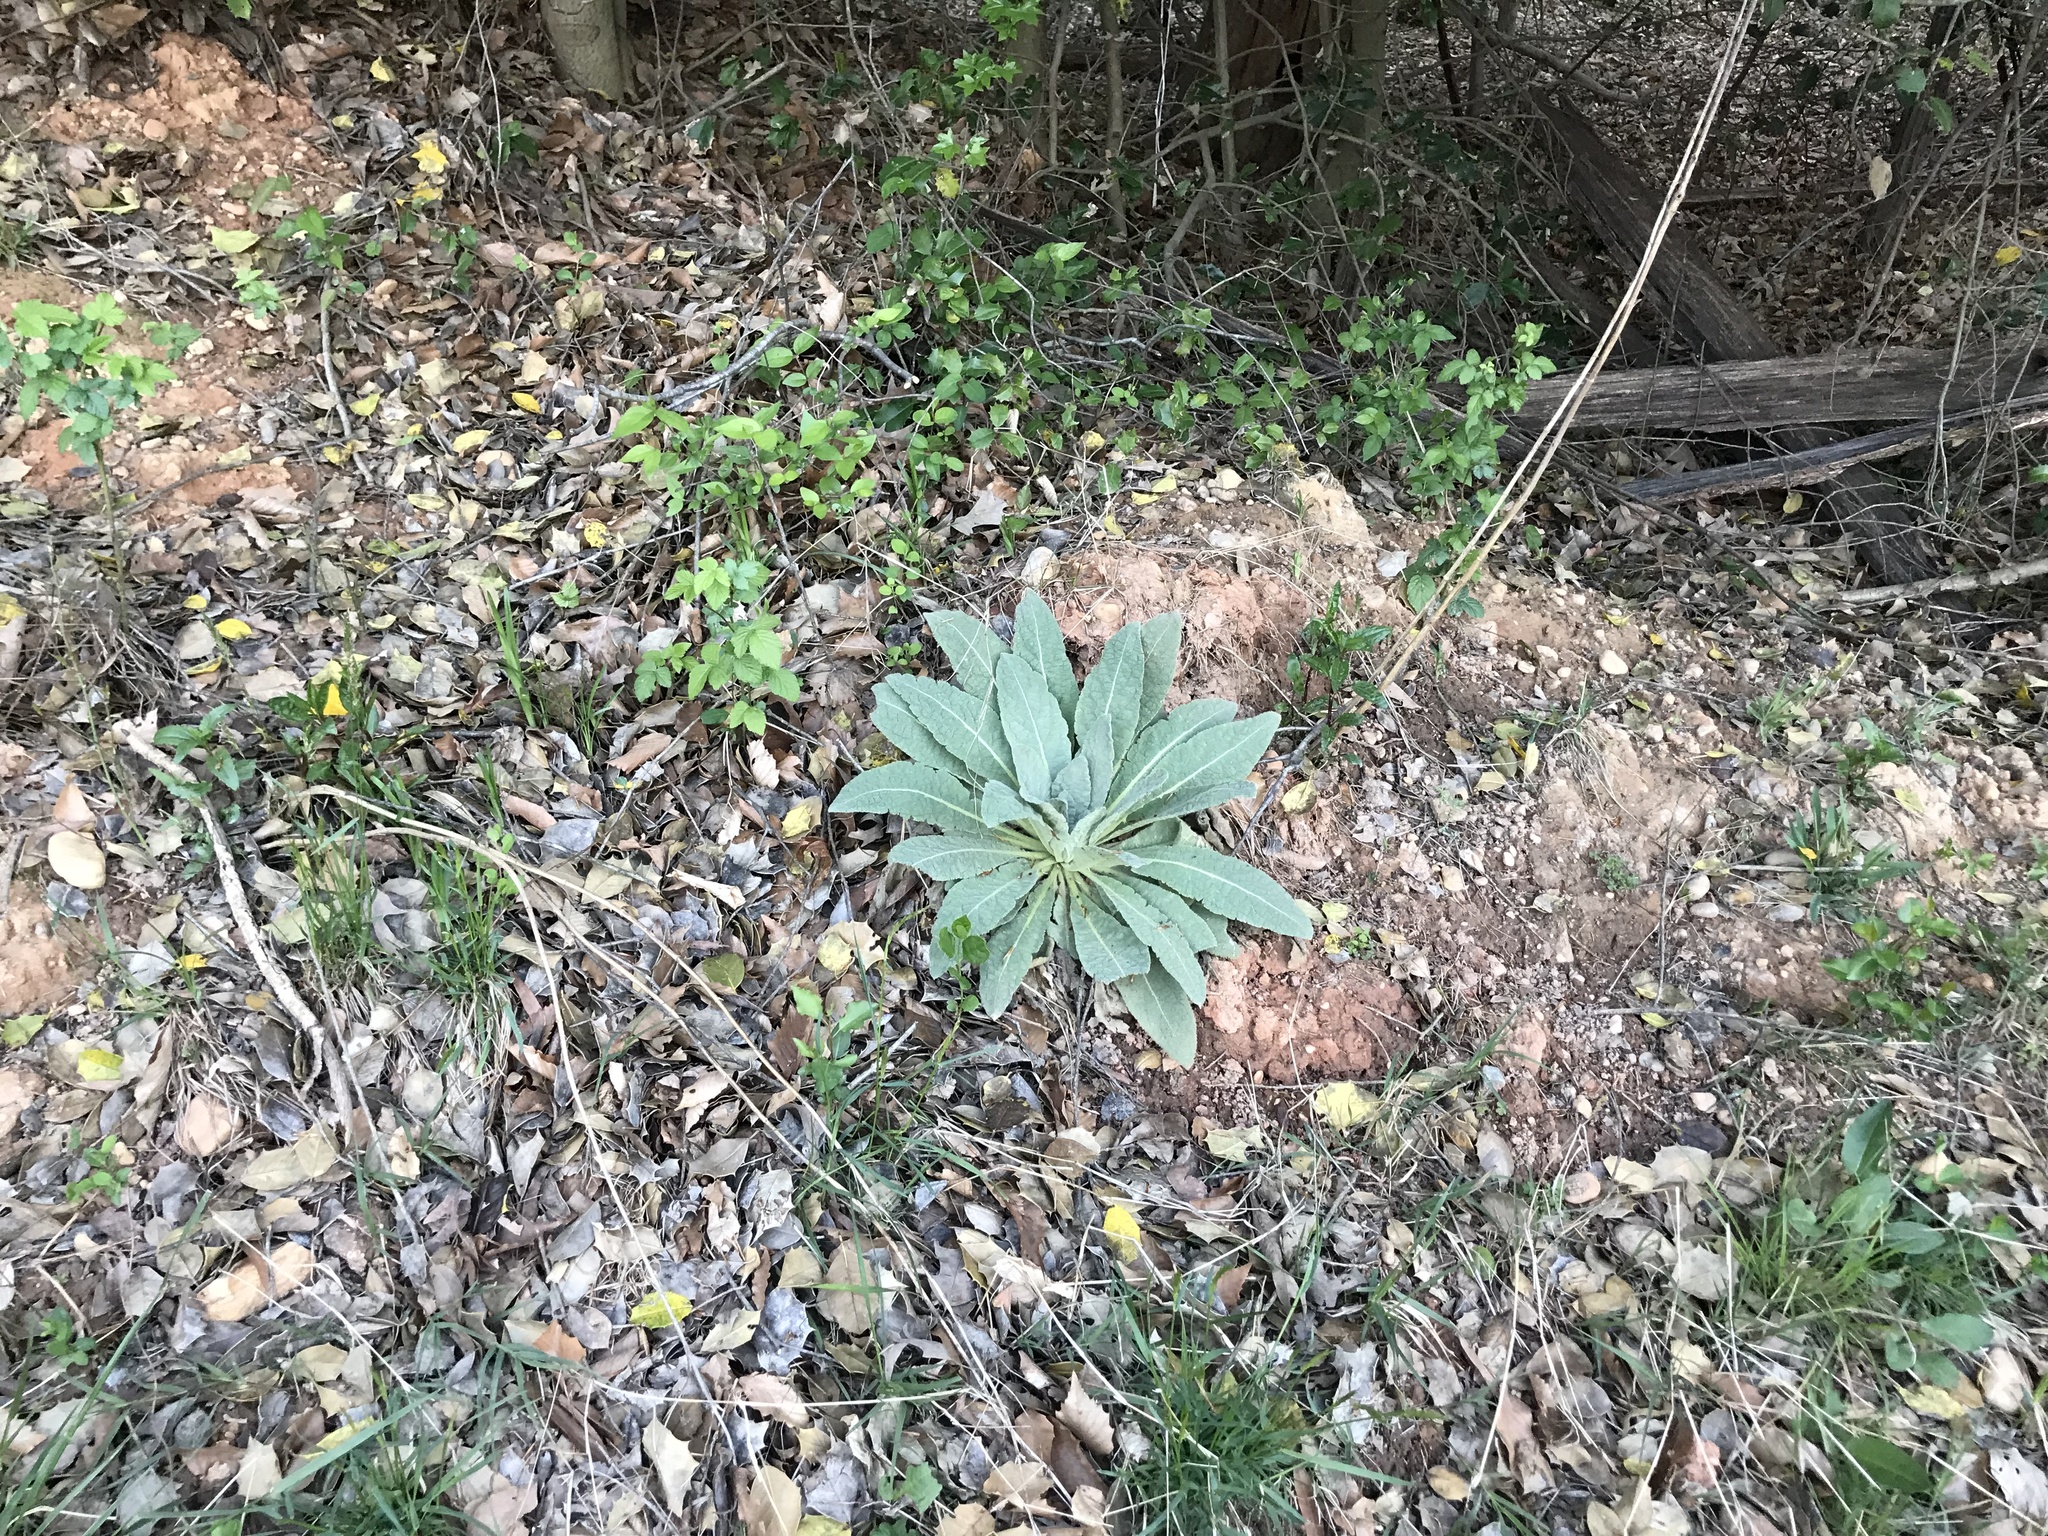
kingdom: Plantae
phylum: Tracheophyta
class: Magnoliopsida
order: Lamiales
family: Scrophulariaceae
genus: Verbascum
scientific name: Verbascum thapsus
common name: Common mullein
